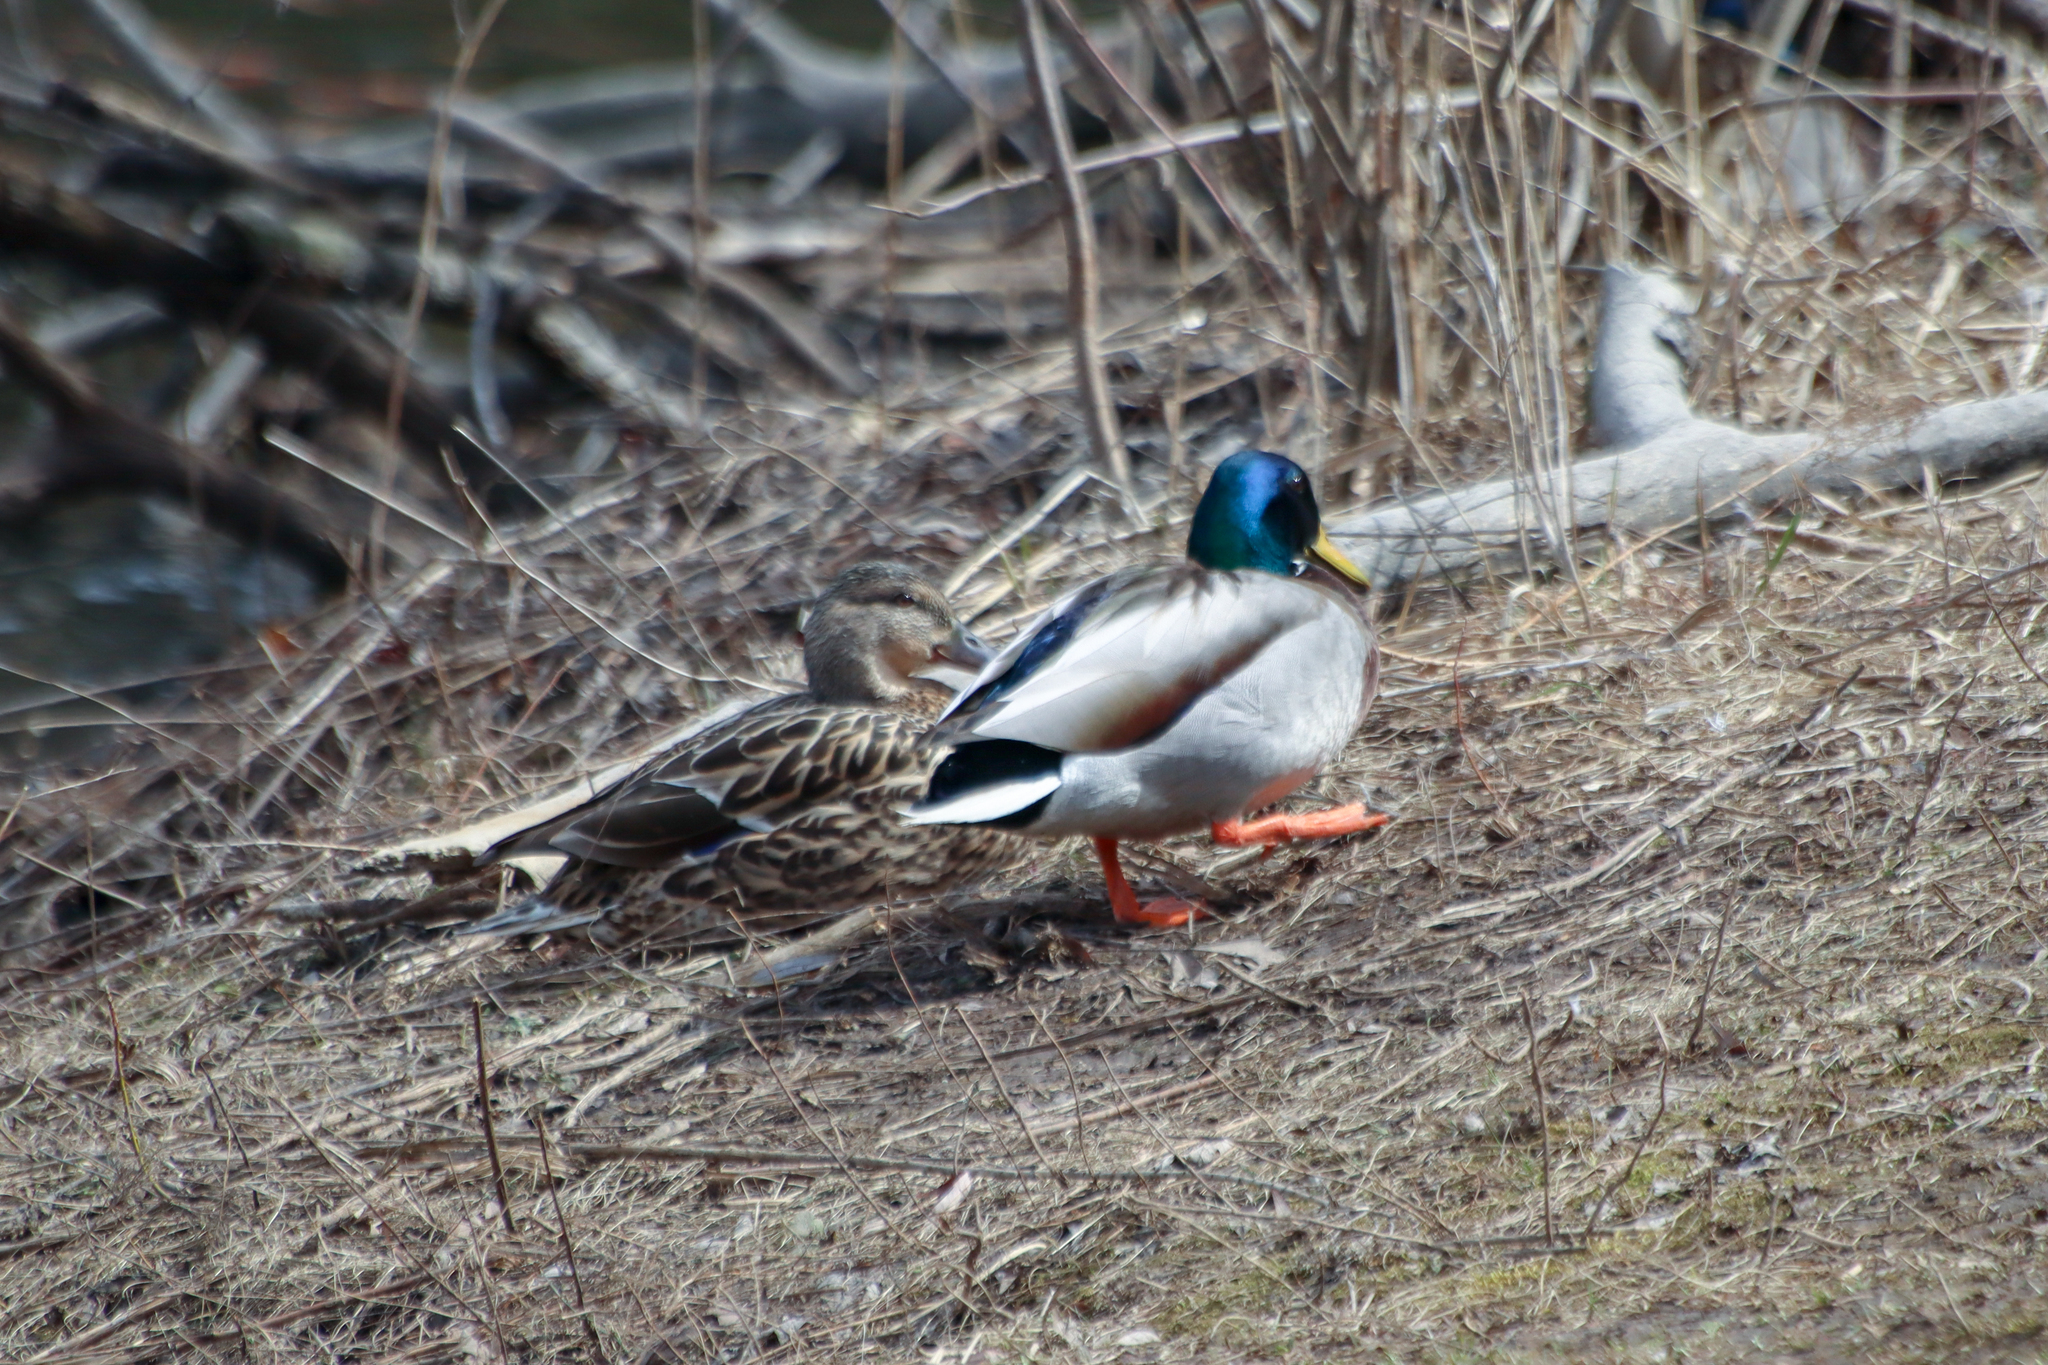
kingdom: Animalia
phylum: Chordata
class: Aves
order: Anseriformes
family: Anatidae
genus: Anas
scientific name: Anas platyrhynchos
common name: Mallard
